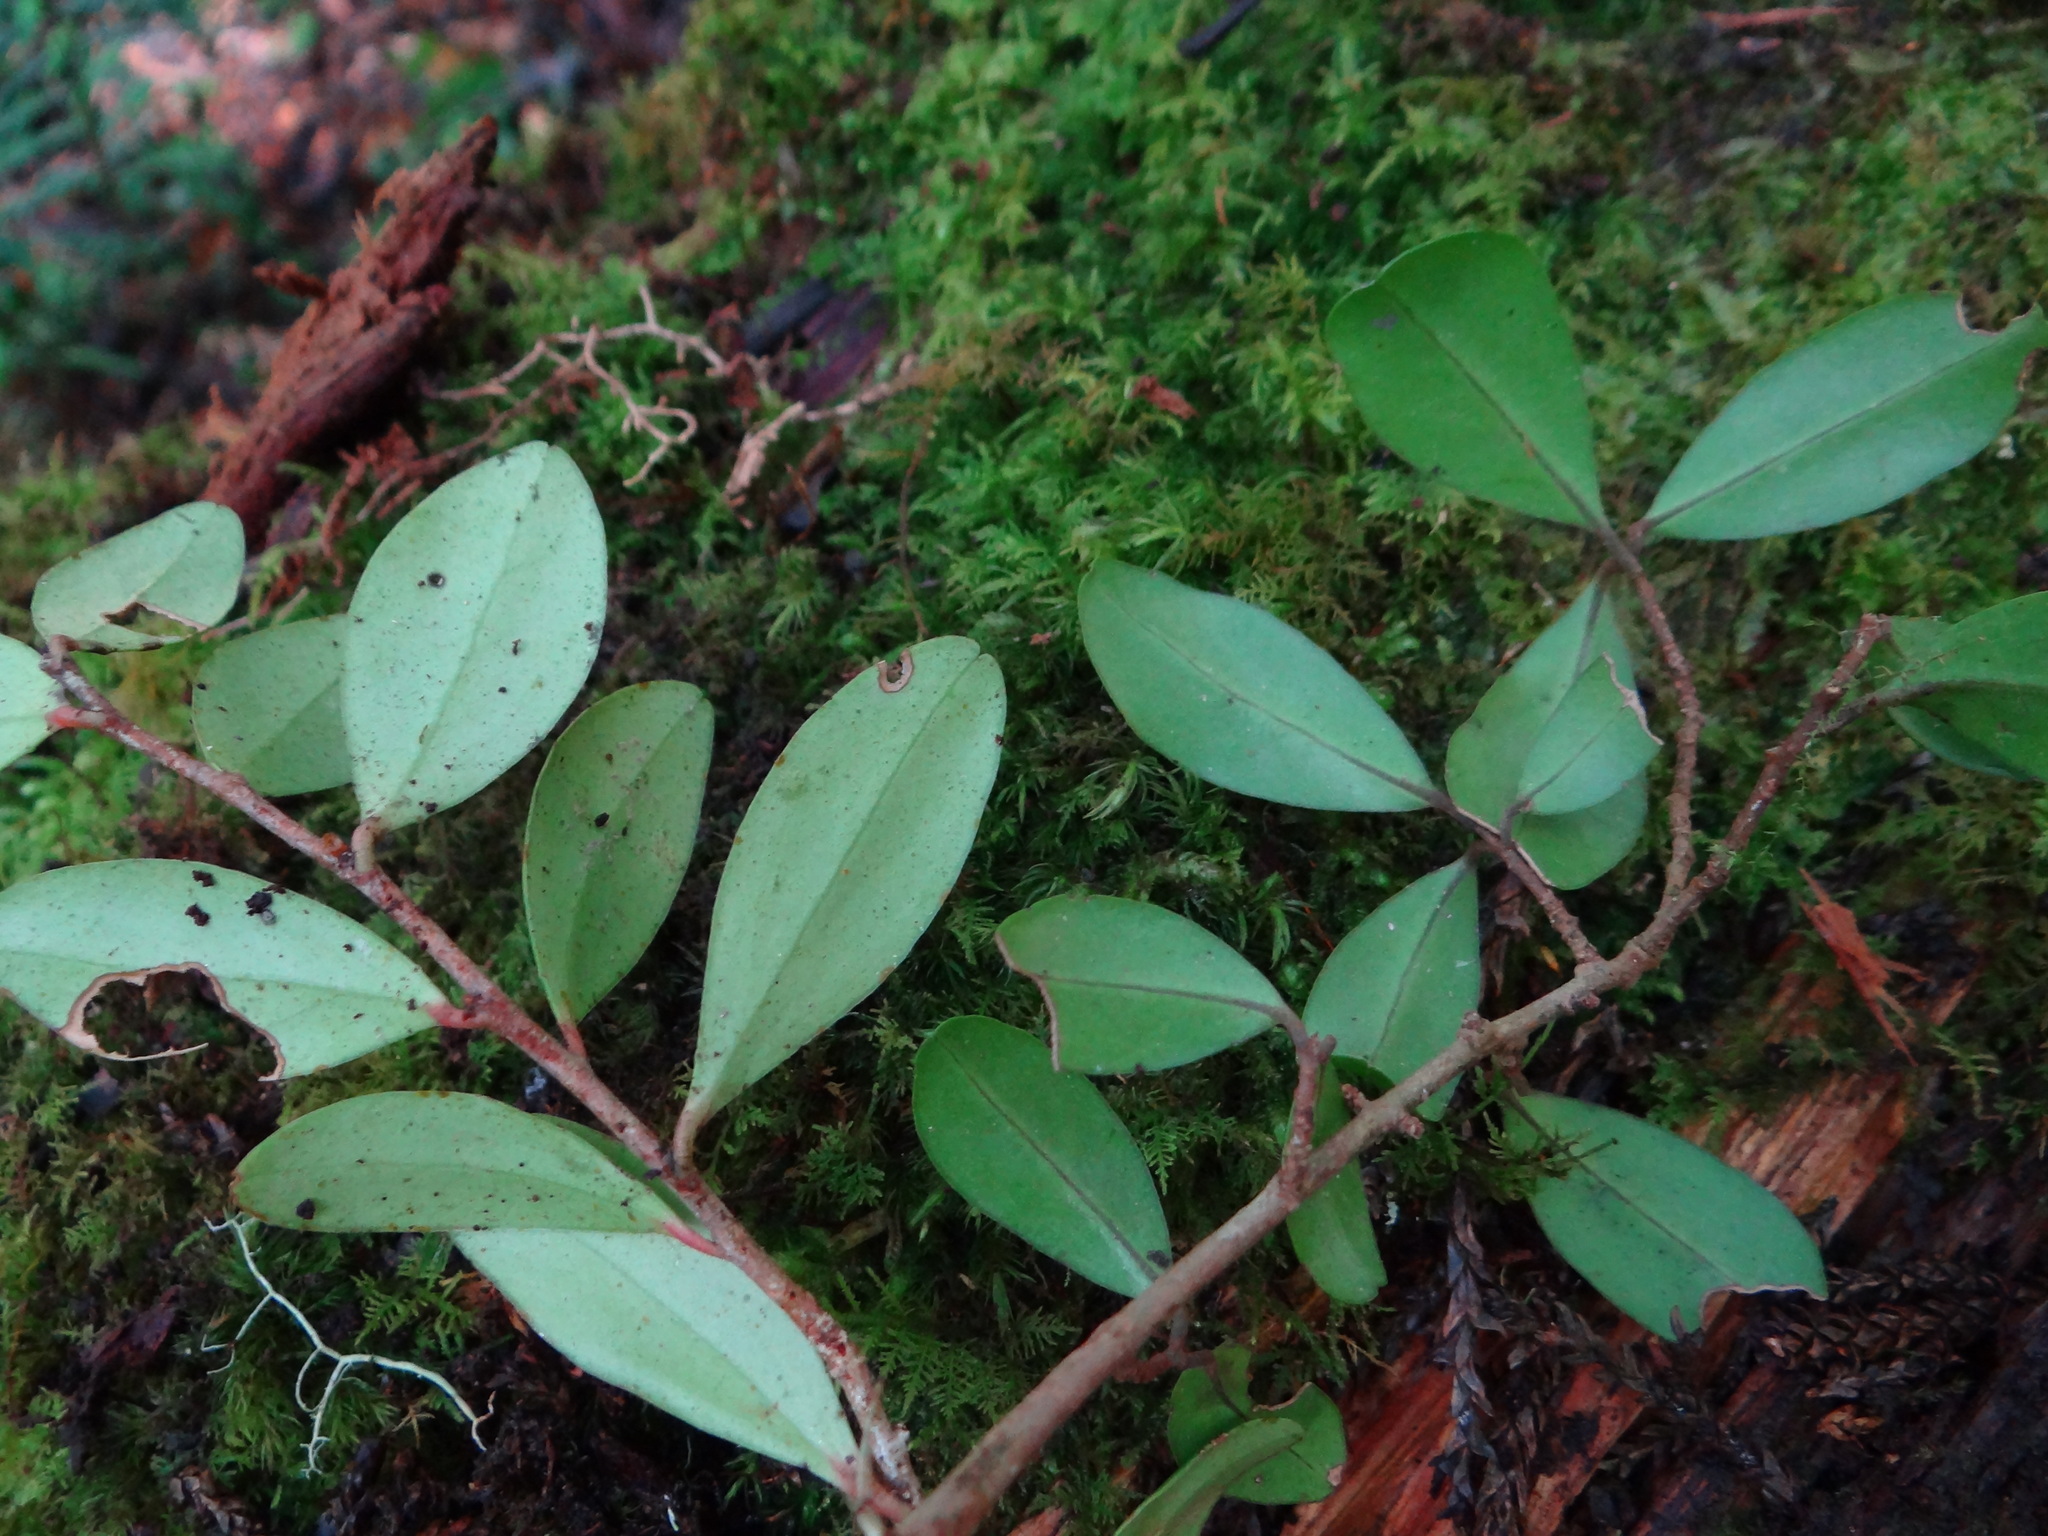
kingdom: Plantae
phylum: Tracheophyta
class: Magnoliopsida
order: Ericales
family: Primulaceae
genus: Embelia
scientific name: Embelia laeta
